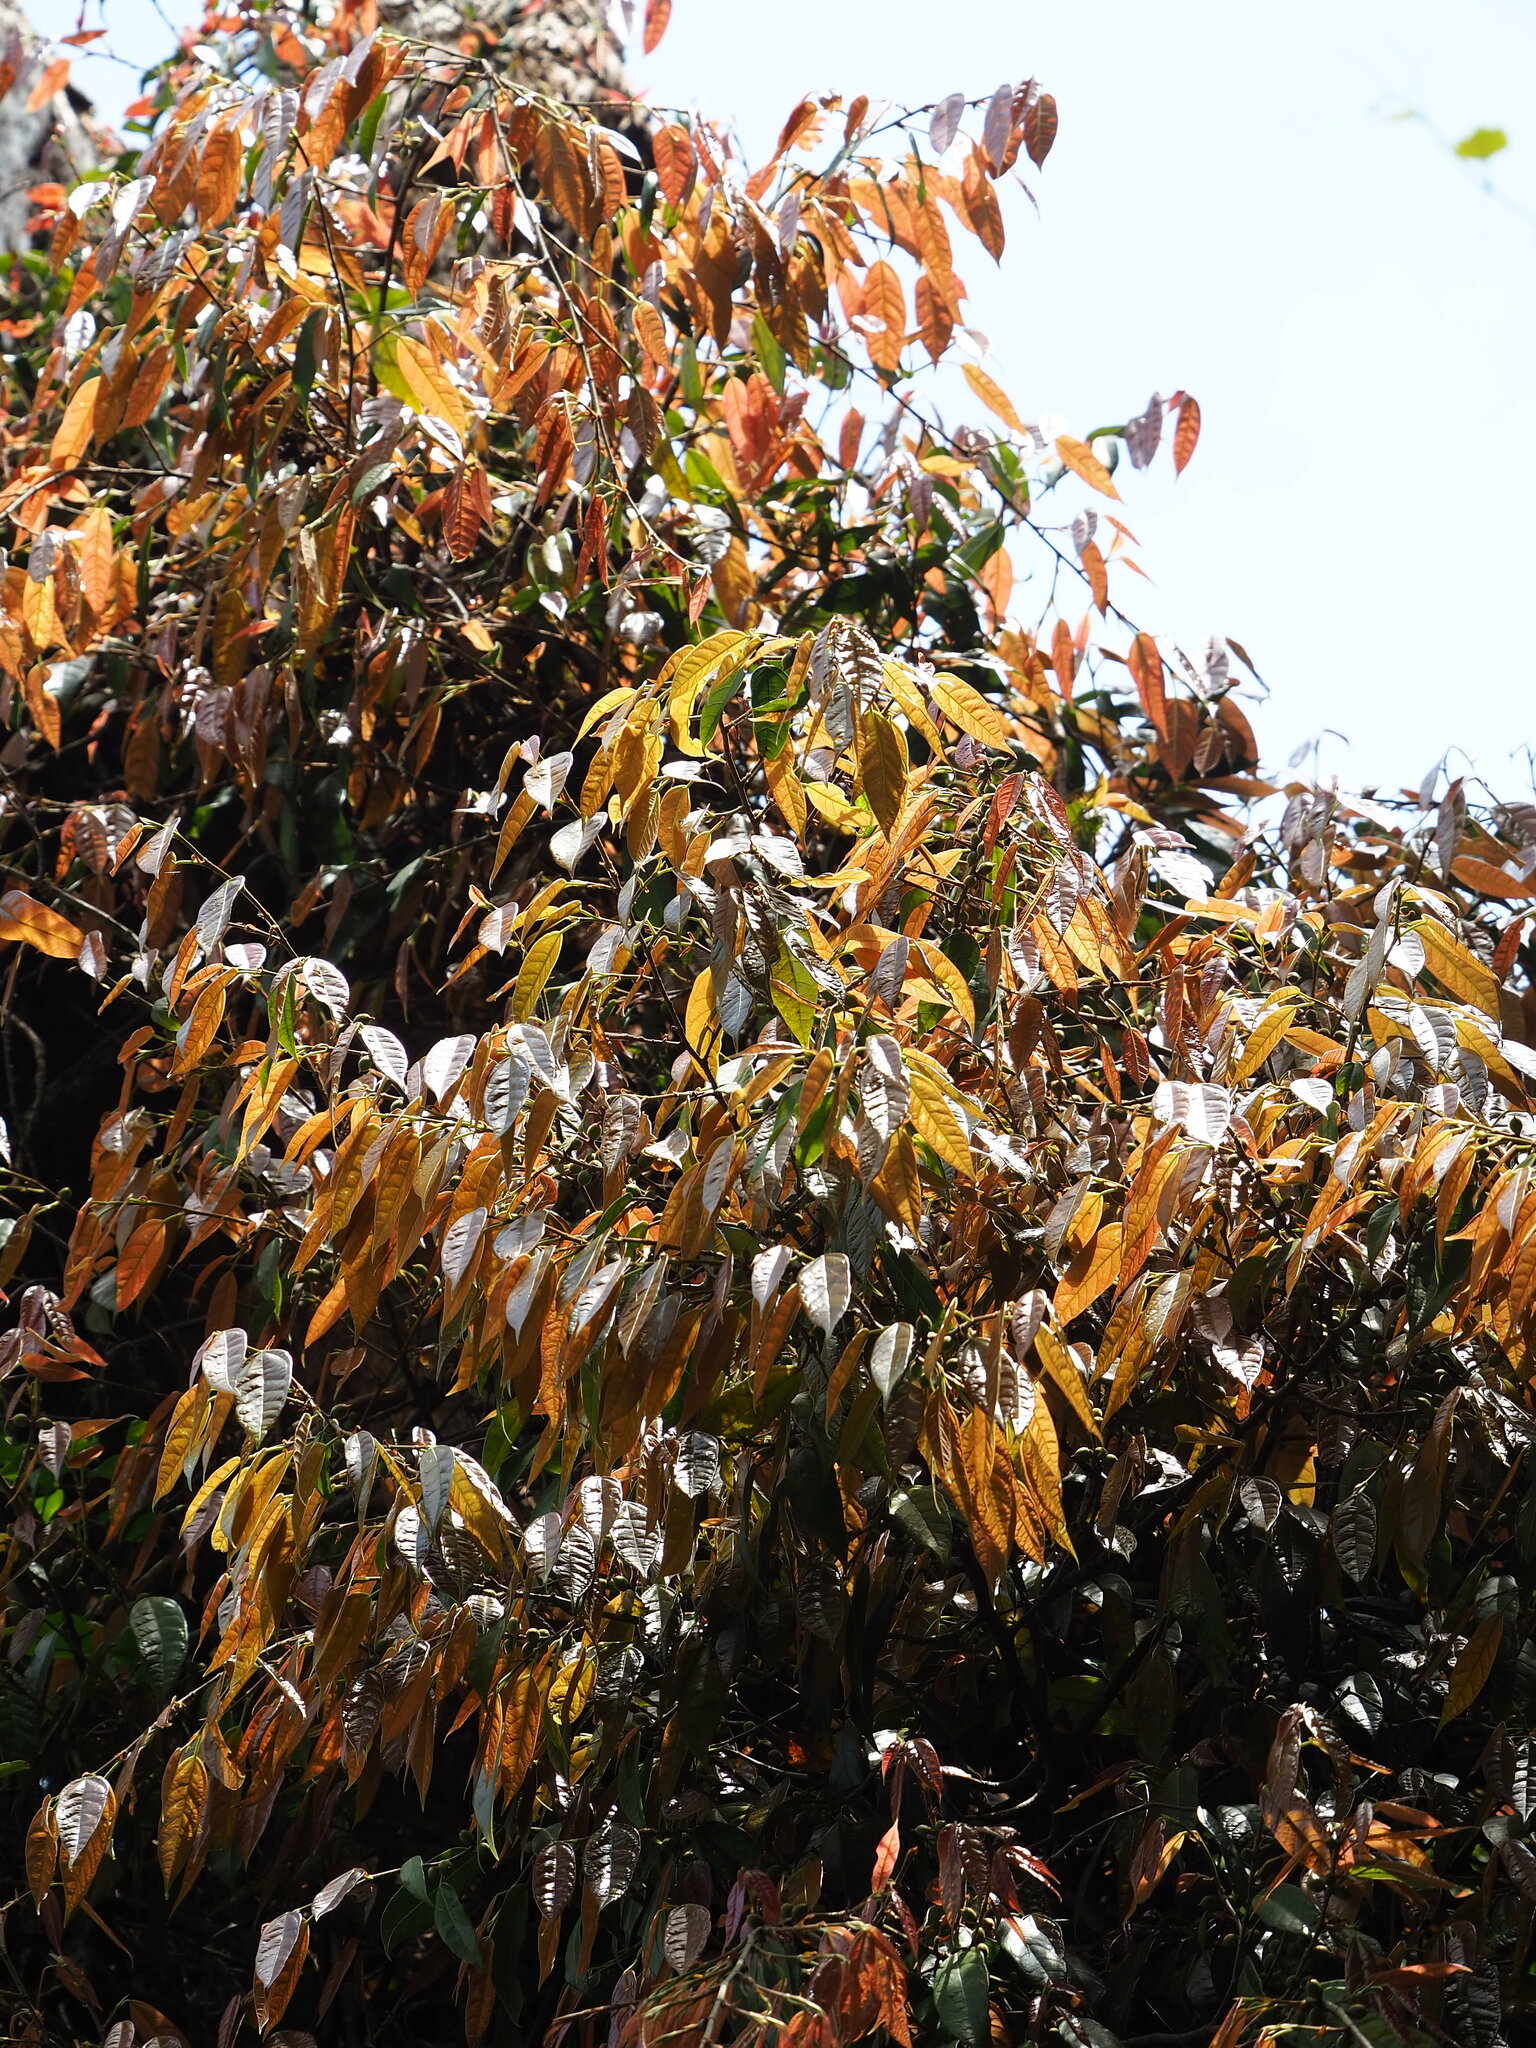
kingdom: Plantae
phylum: Tracheophyta
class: Magnoliopsida
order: Rosales
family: Moraceae
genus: Ficus
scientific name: Ficus sarmentosa
